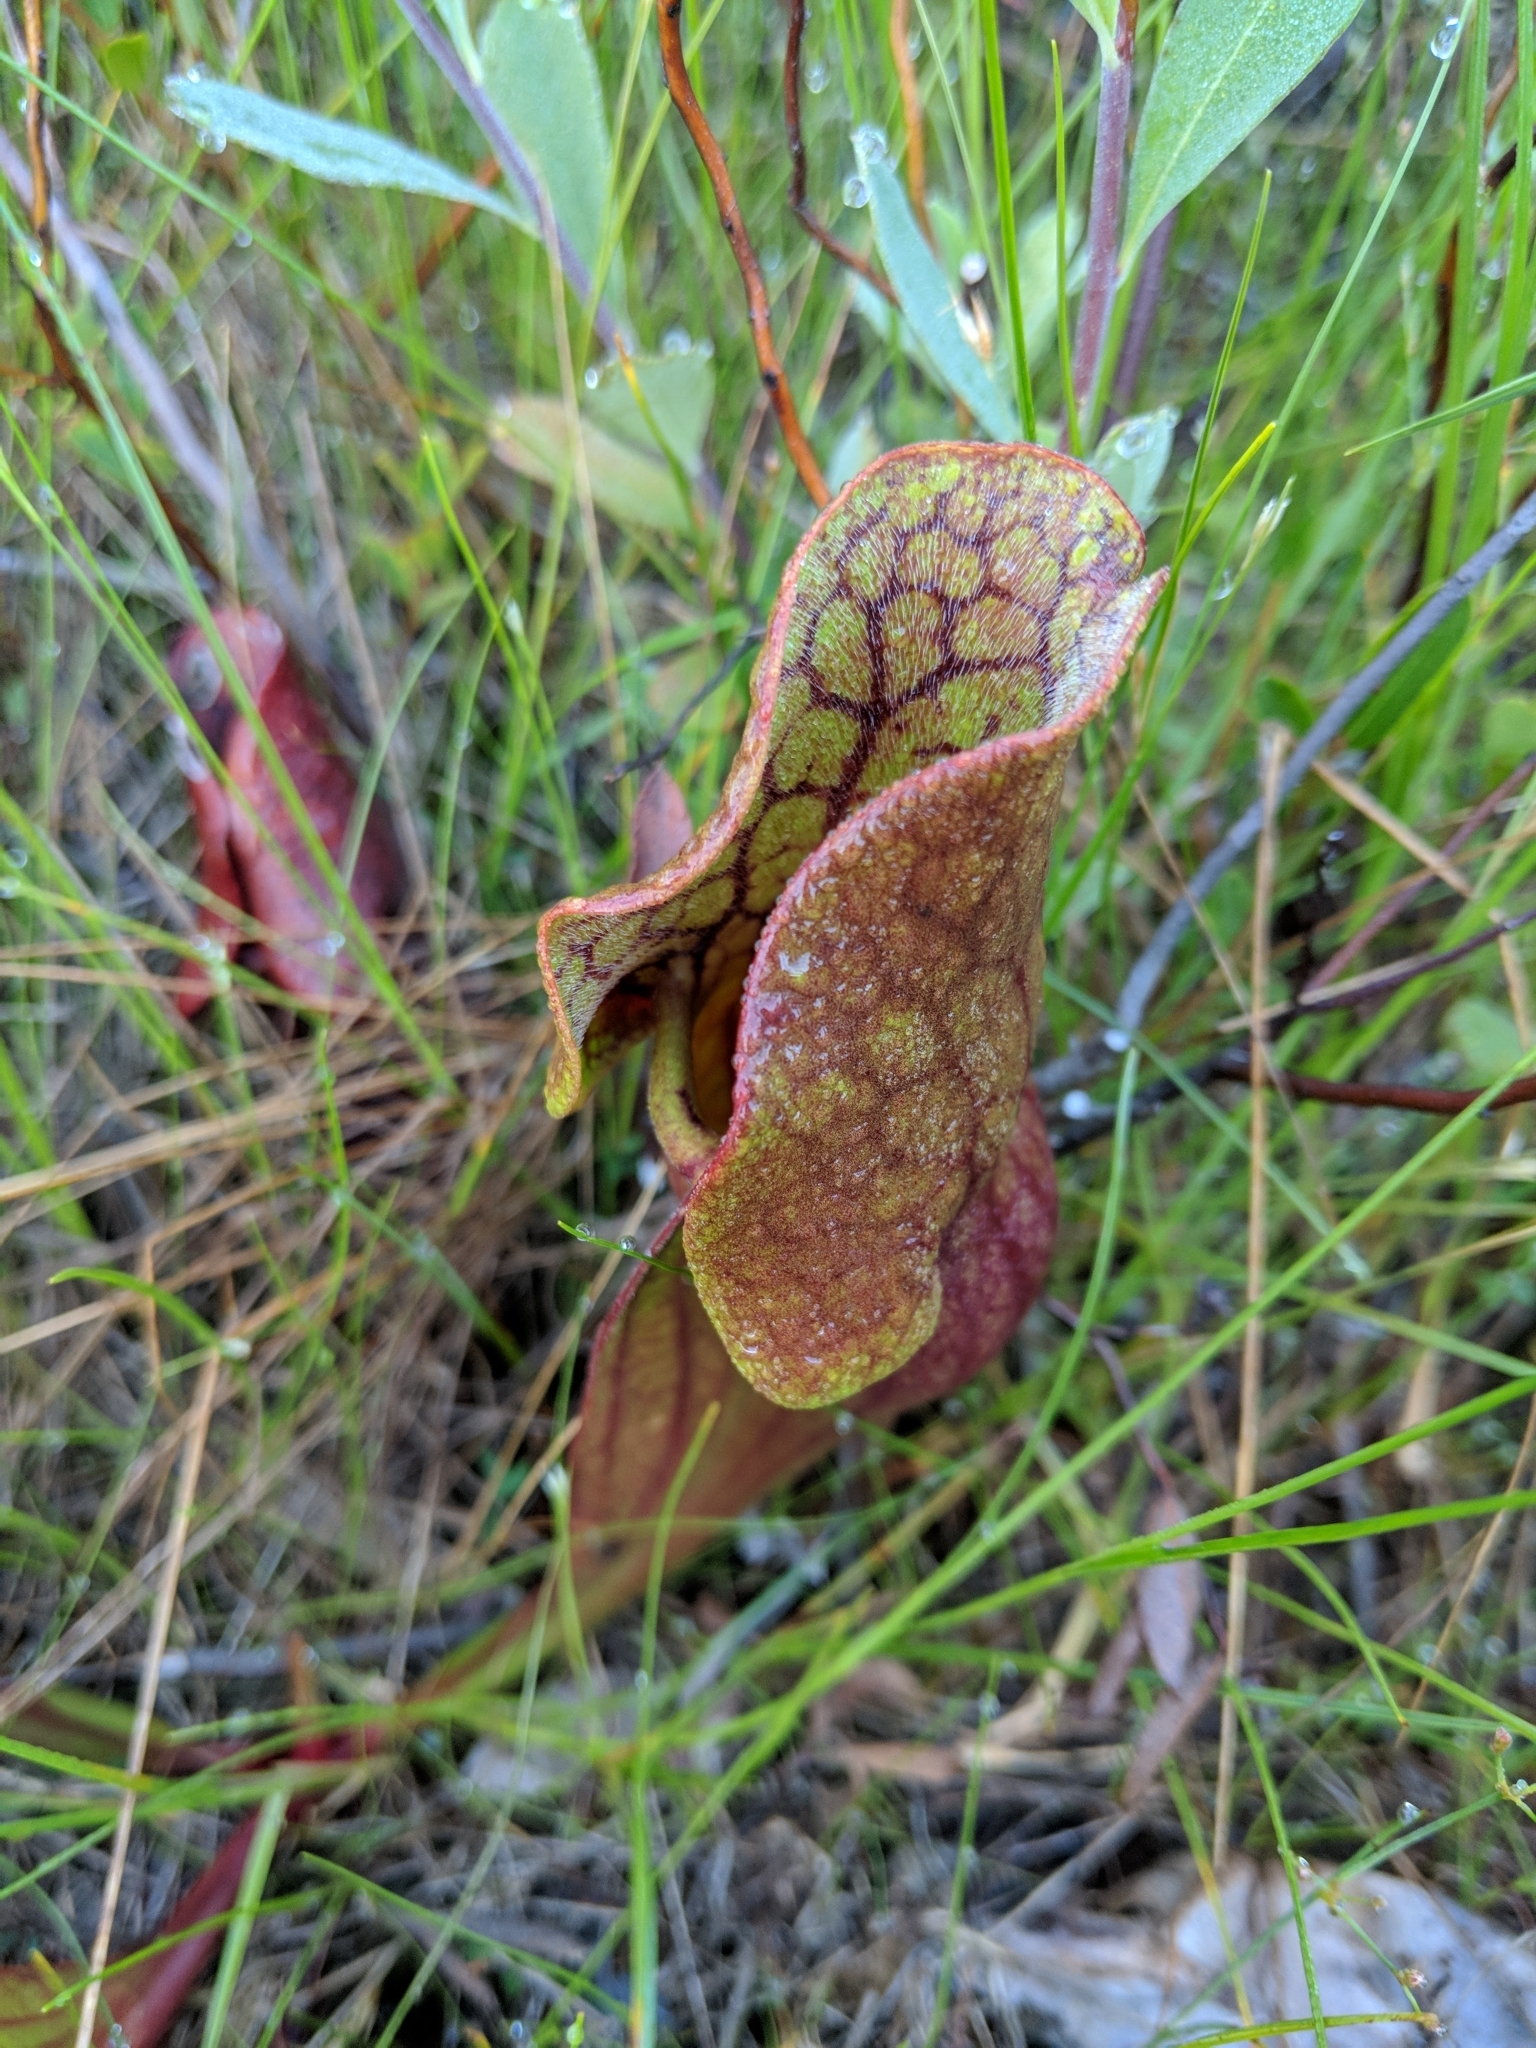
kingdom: Plantae
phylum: Tracheophyta
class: Magnoliopsida
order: Ericales
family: Sarraceniaceae
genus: Sarracenia
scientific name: Sarracenia purpurea
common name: Pitcherplant
